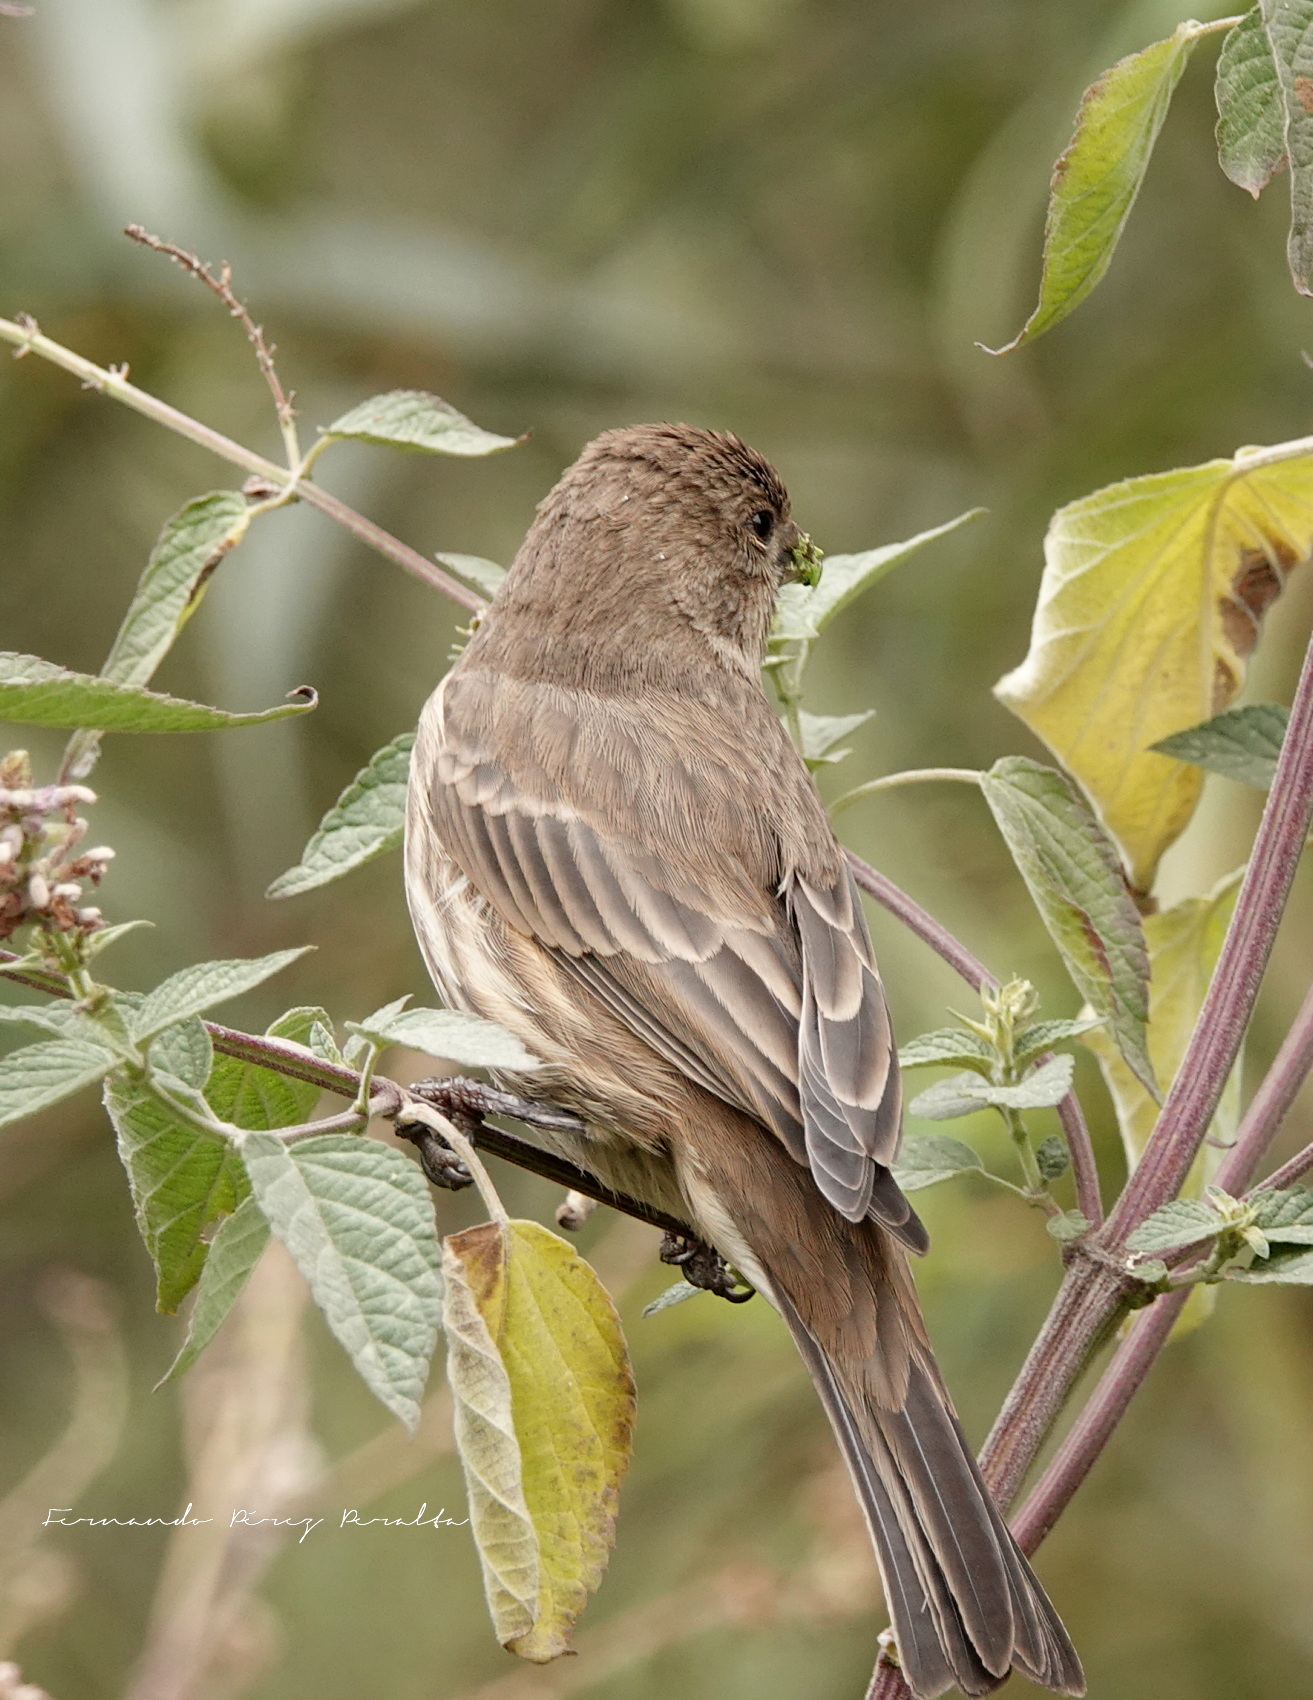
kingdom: Animalia
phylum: Chordata
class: Aves
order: Passeriformes
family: Fringillidae
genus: Haemorhous
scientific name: Haemorhous mexicanus
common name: House finch
